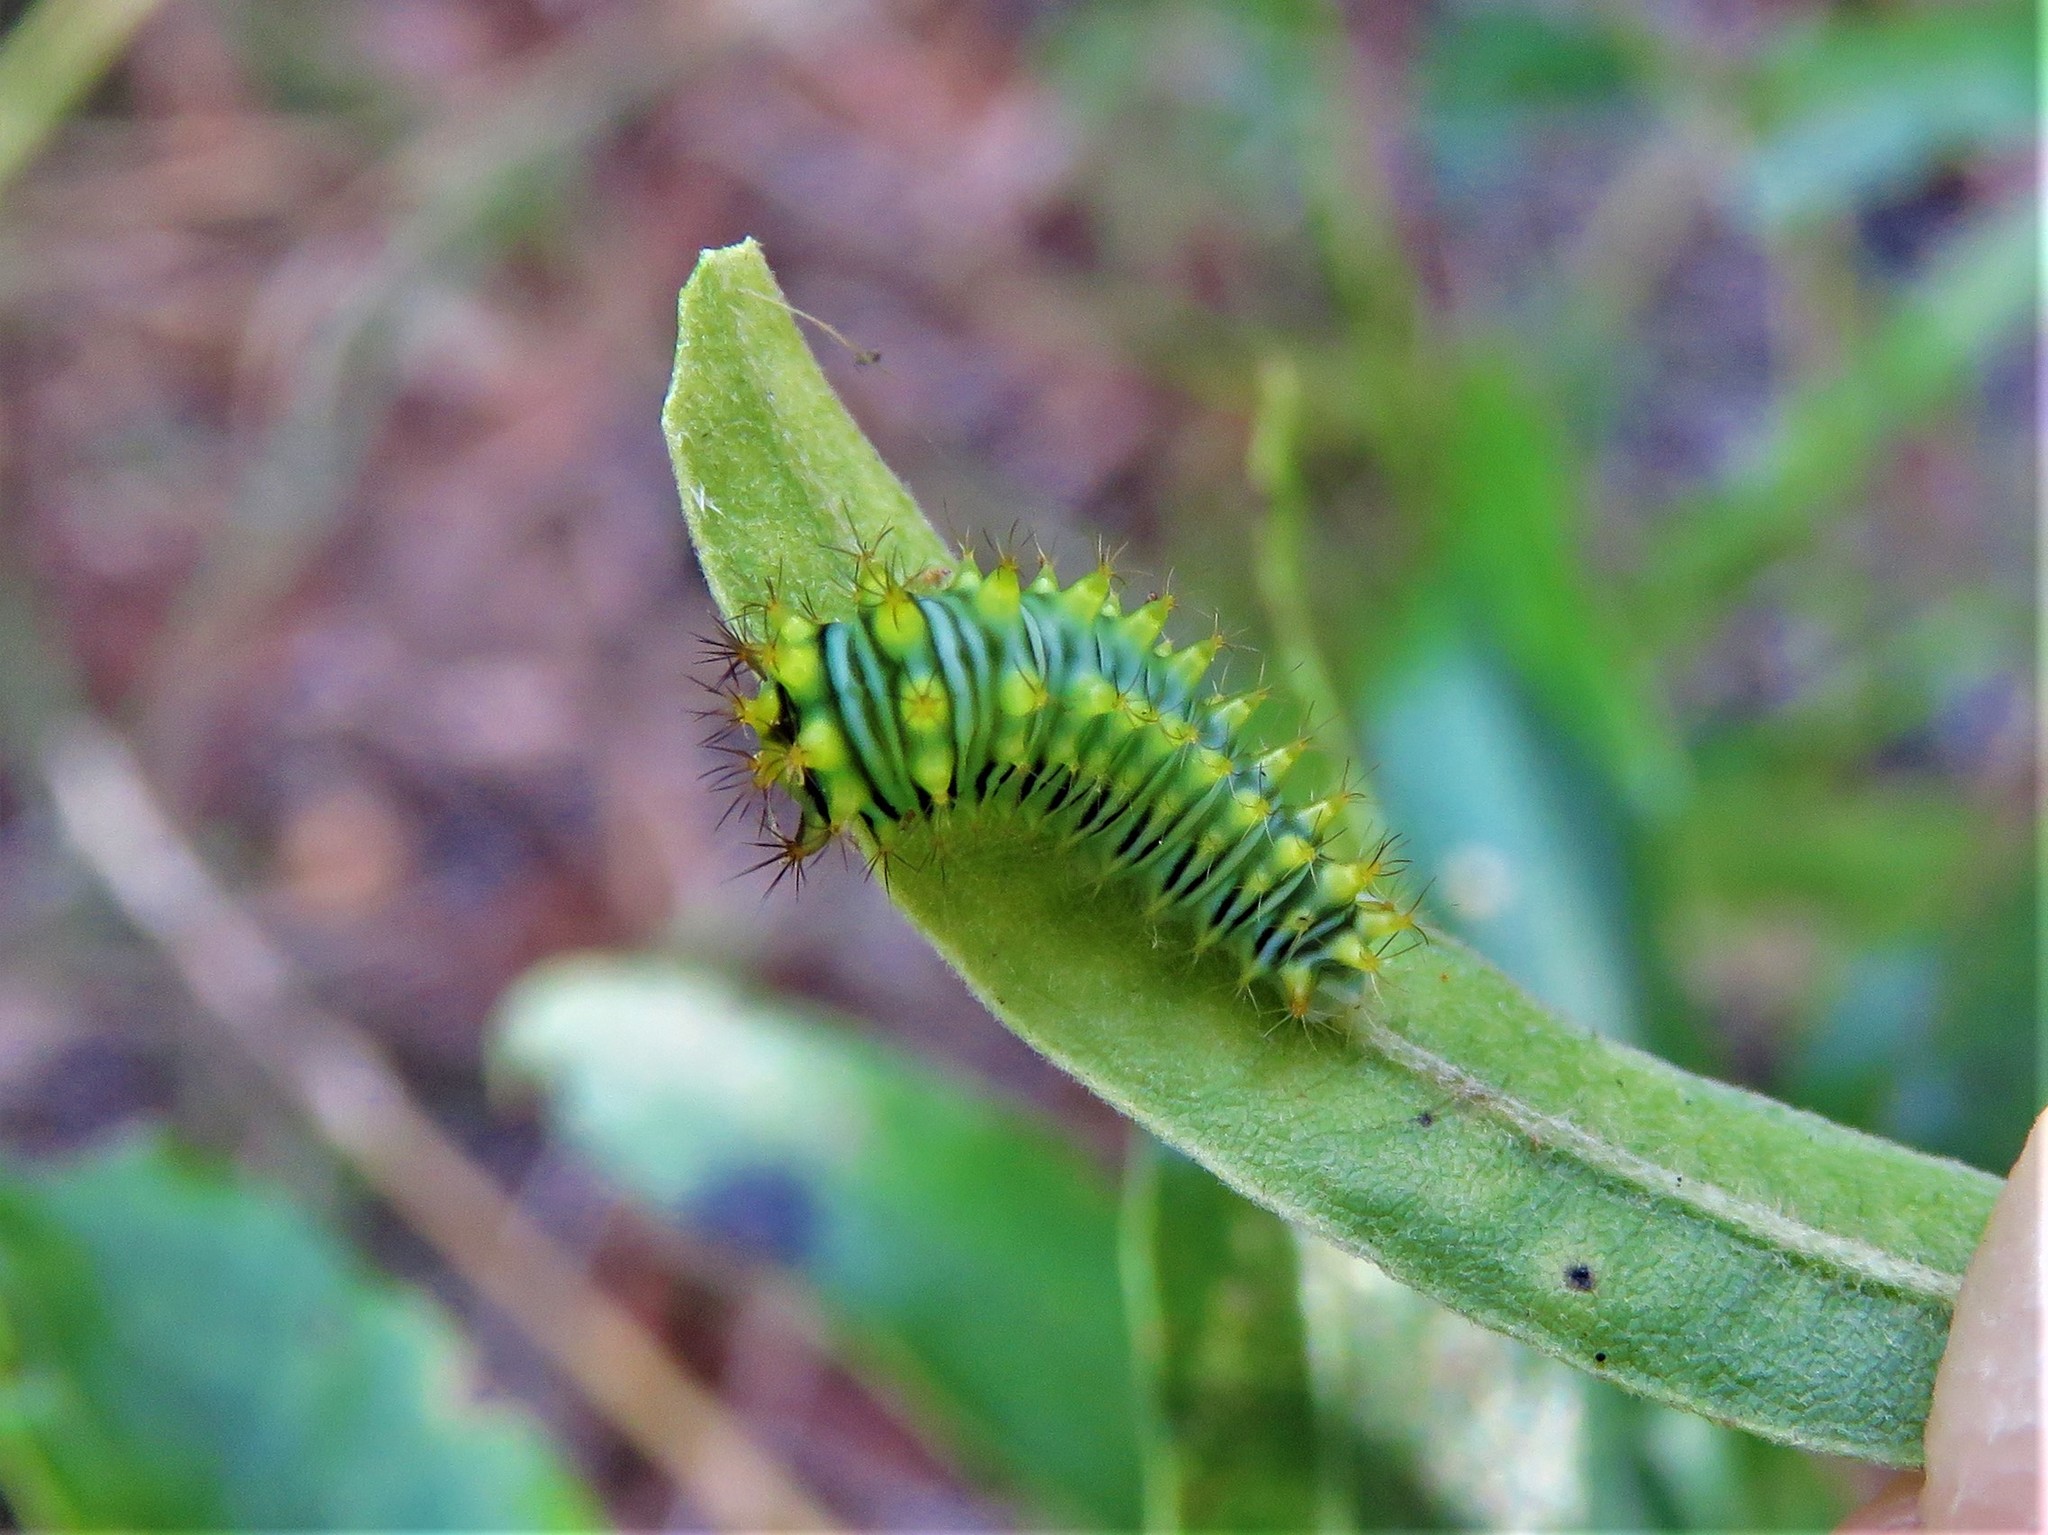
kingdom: Animalia
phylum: Arthropoda
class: Insecta
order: Lepidoptera
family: Saturniidae
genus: Antheraea
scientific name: Antheraea polyphemus
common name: Polyphemus moth
